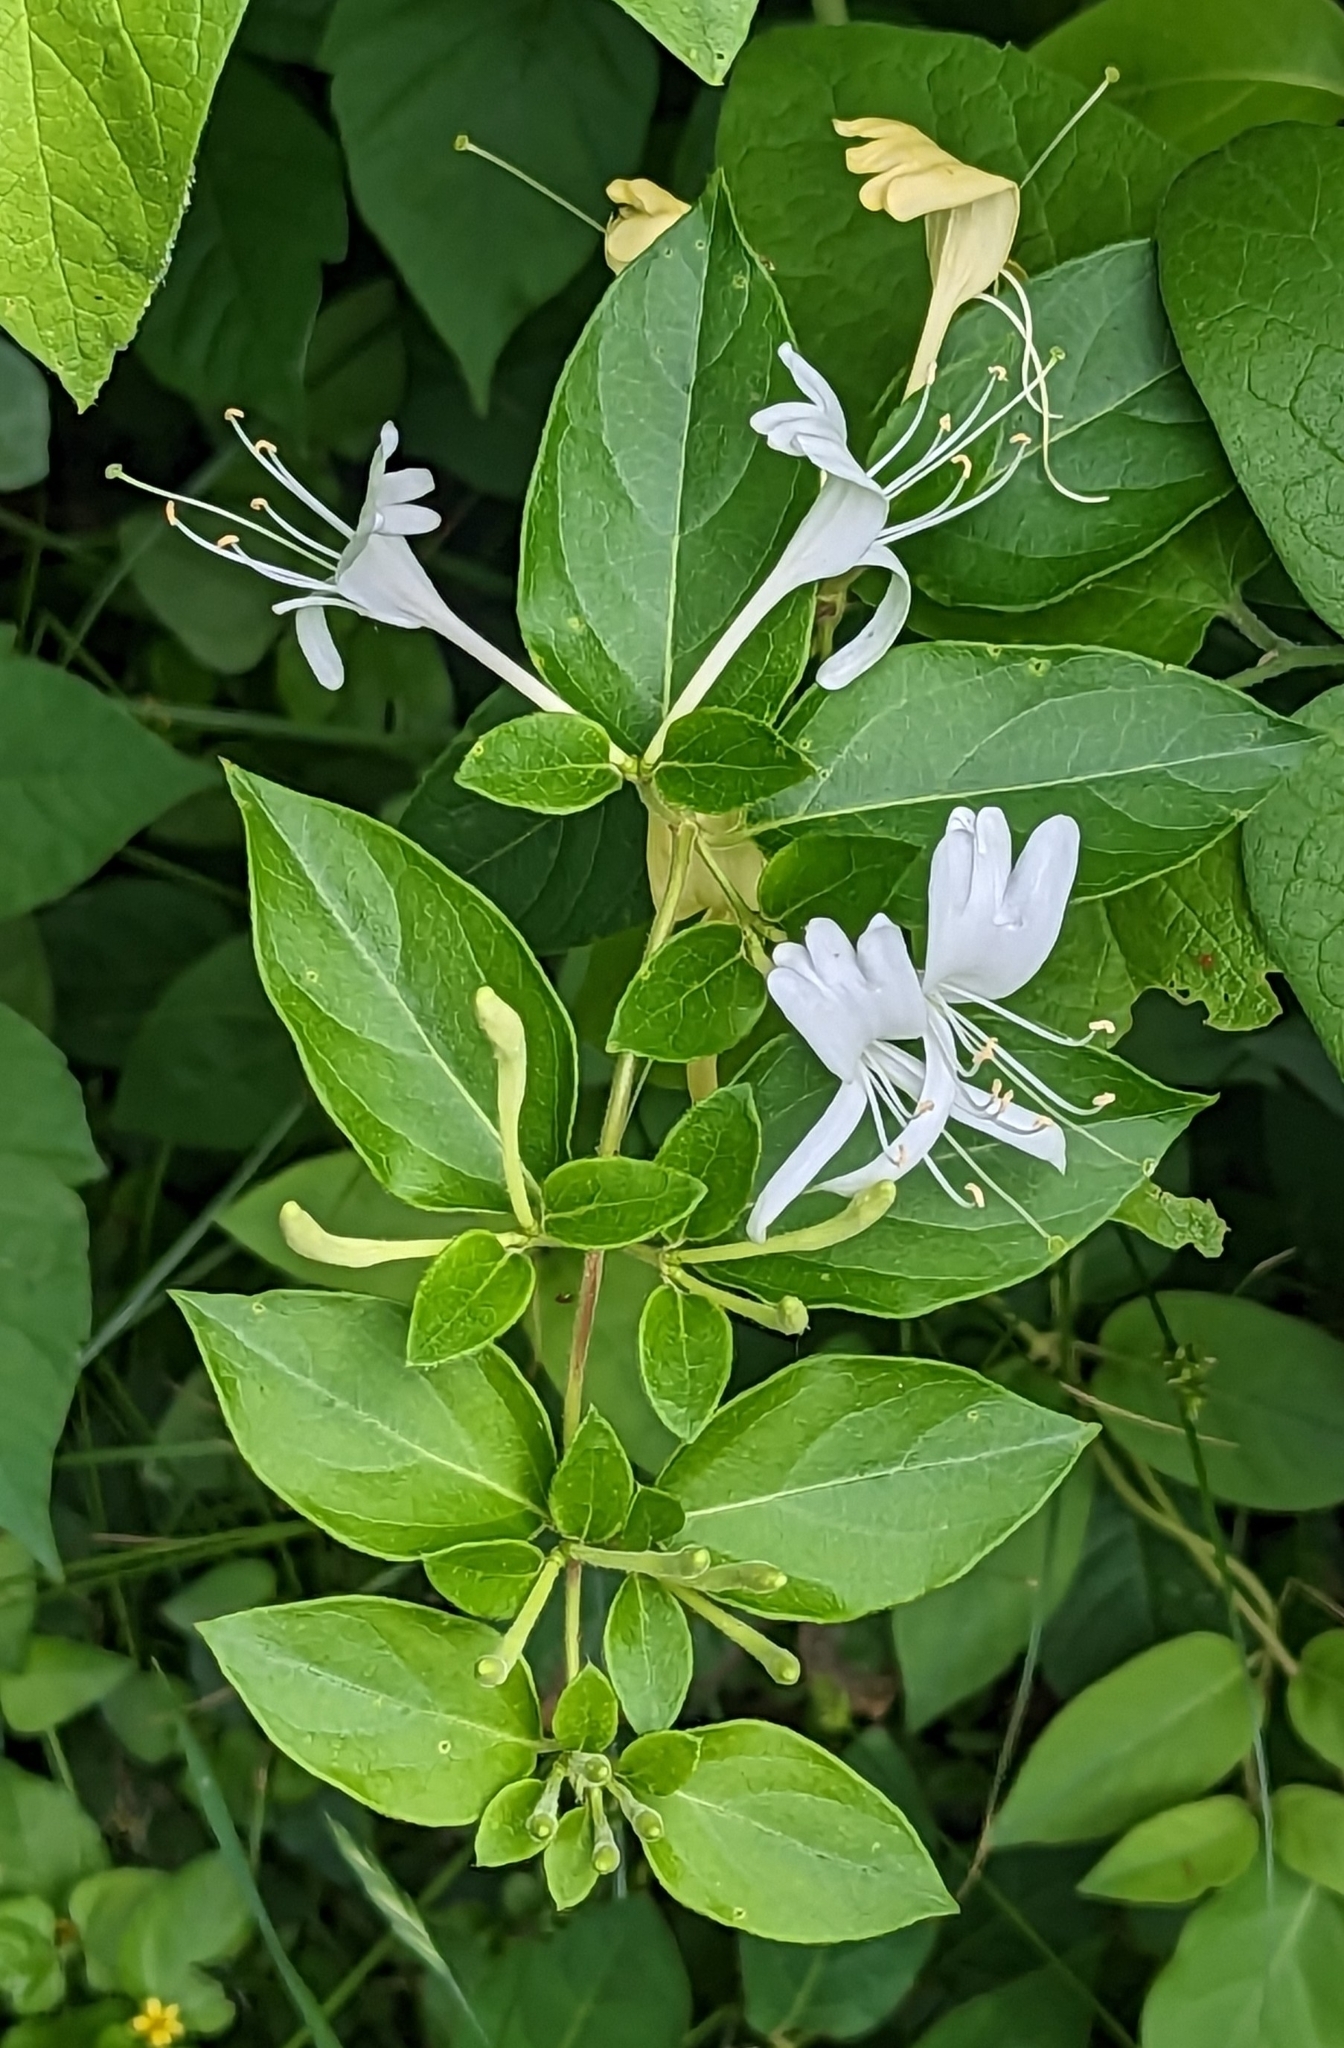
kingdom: Plantae
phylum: Tracheophyta
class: Magnoliopsida
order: Dipsacales
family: Caprifoliaceae
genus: Lonicera
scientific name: Lonicera japonica
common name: Japanese honeysuckle
